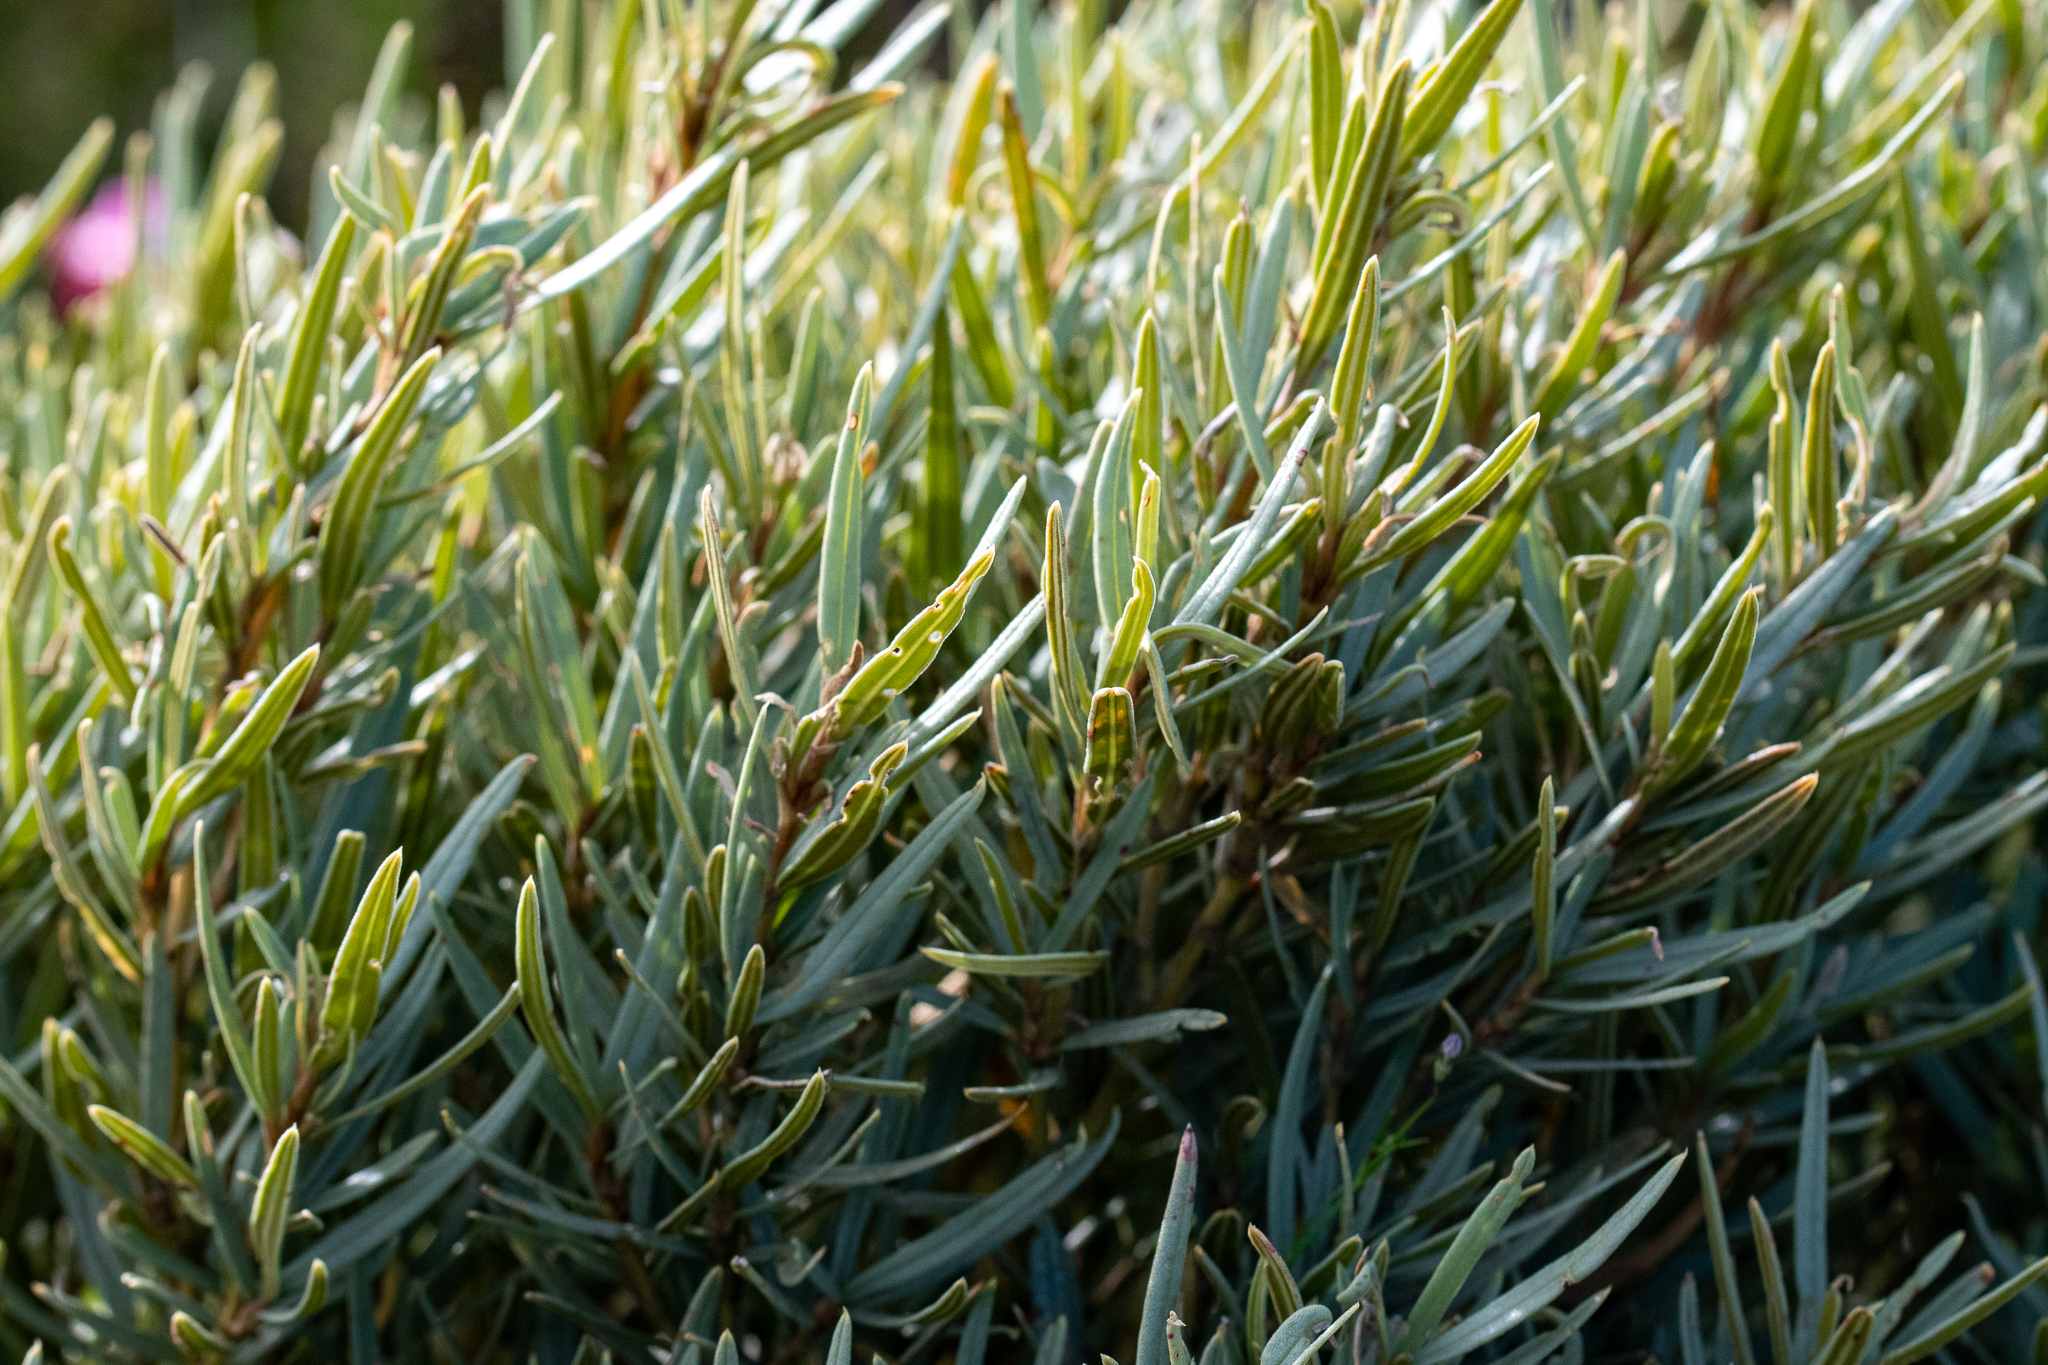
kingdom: Plantae
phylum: Tracheophyta
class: Magnoliopsida
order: Cornales
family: Grubbiaceae
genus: Grubbia
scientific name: Grubbia tomentosa
